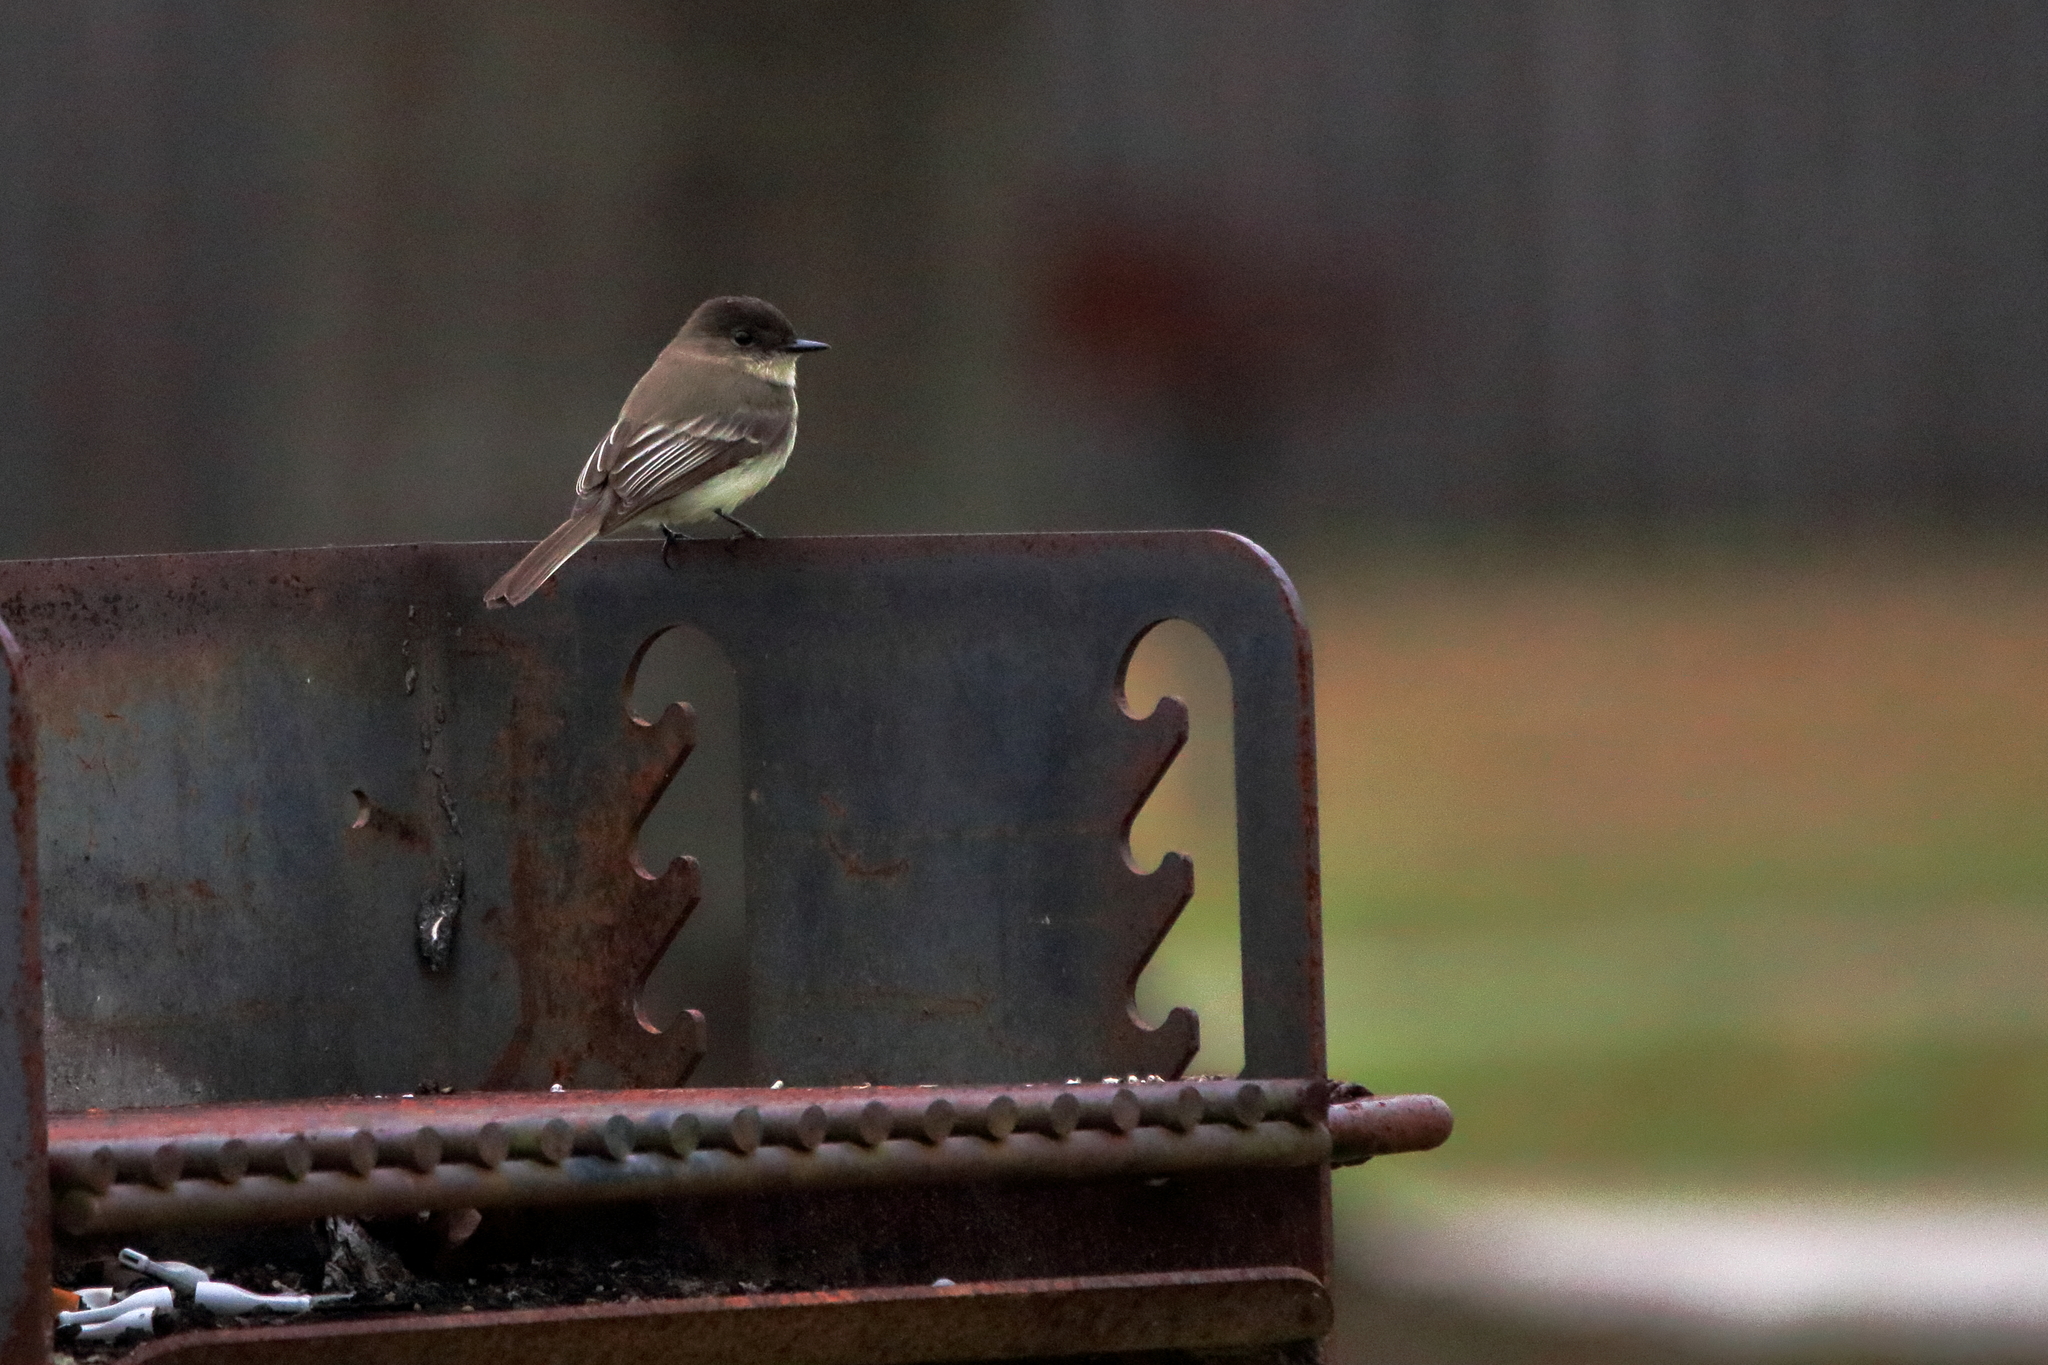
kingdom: Animalia
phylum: Chordata
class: Aves
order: Passeriformes
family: Tyrannidae
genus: Sayornis
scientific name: Sayornis phoebe
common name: Eastern phoebe
